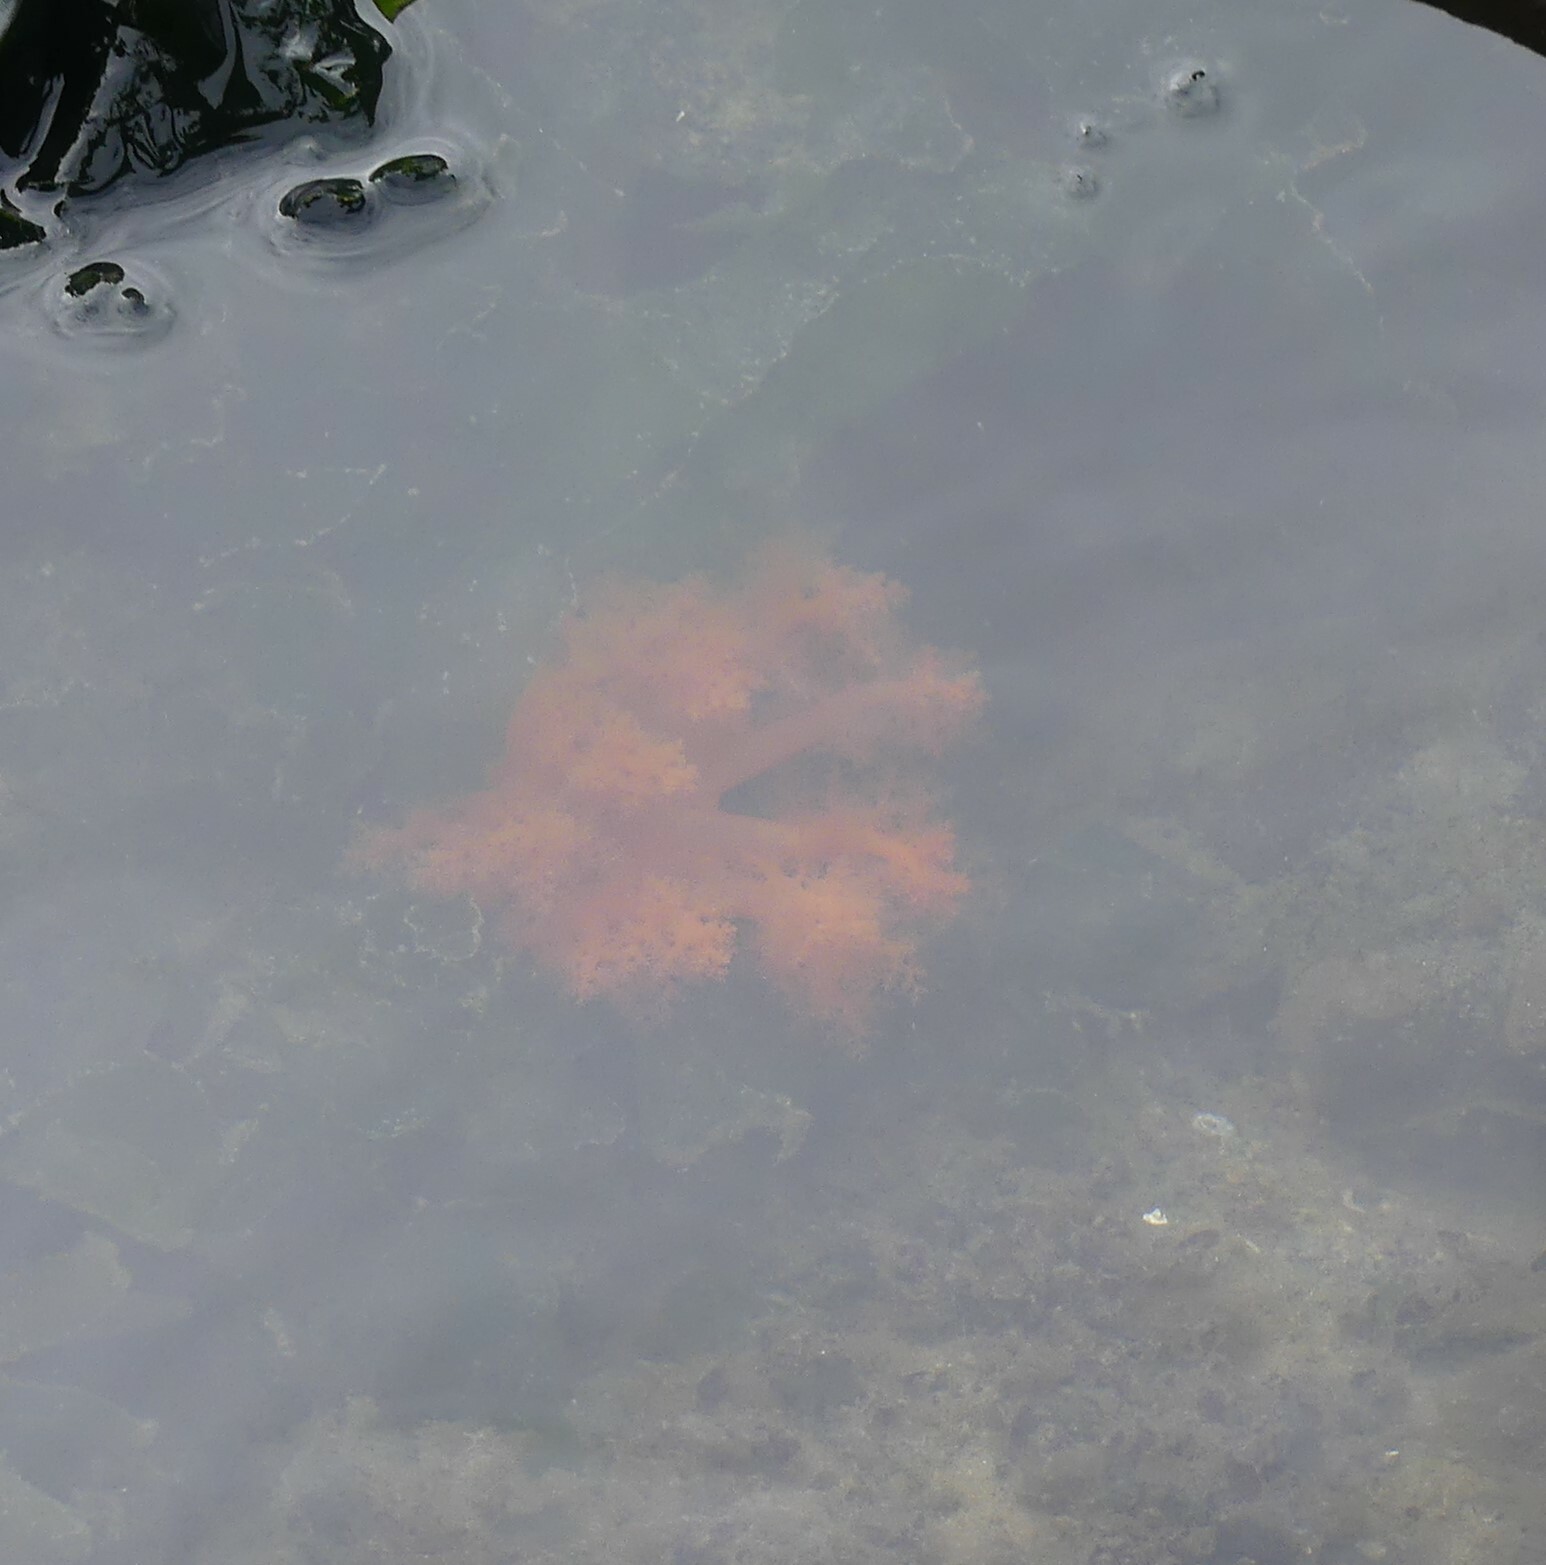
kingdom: Animalia
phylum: Echinodermata
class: Holothuroidea
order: Dendrochirotida
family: Cucumariidae
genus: Cucumaria
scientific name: Cucumaria miniata
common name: Orange sea cucumber
